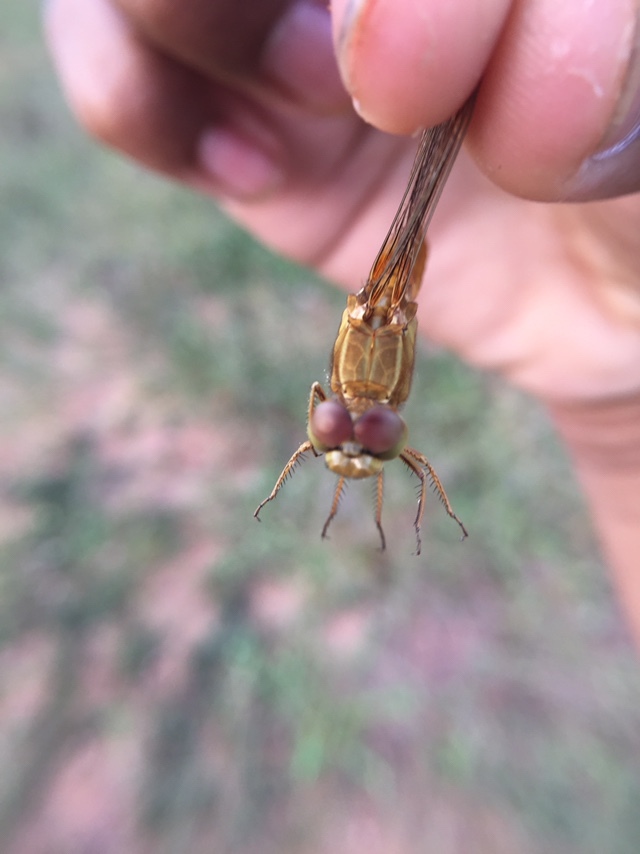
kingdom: Animalia
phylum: Arthropoda
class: Insecta
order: Odonata
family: Libellulidae
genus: Crocothemis
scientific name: Crocothemis servilia
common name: Scarlet skimmer
